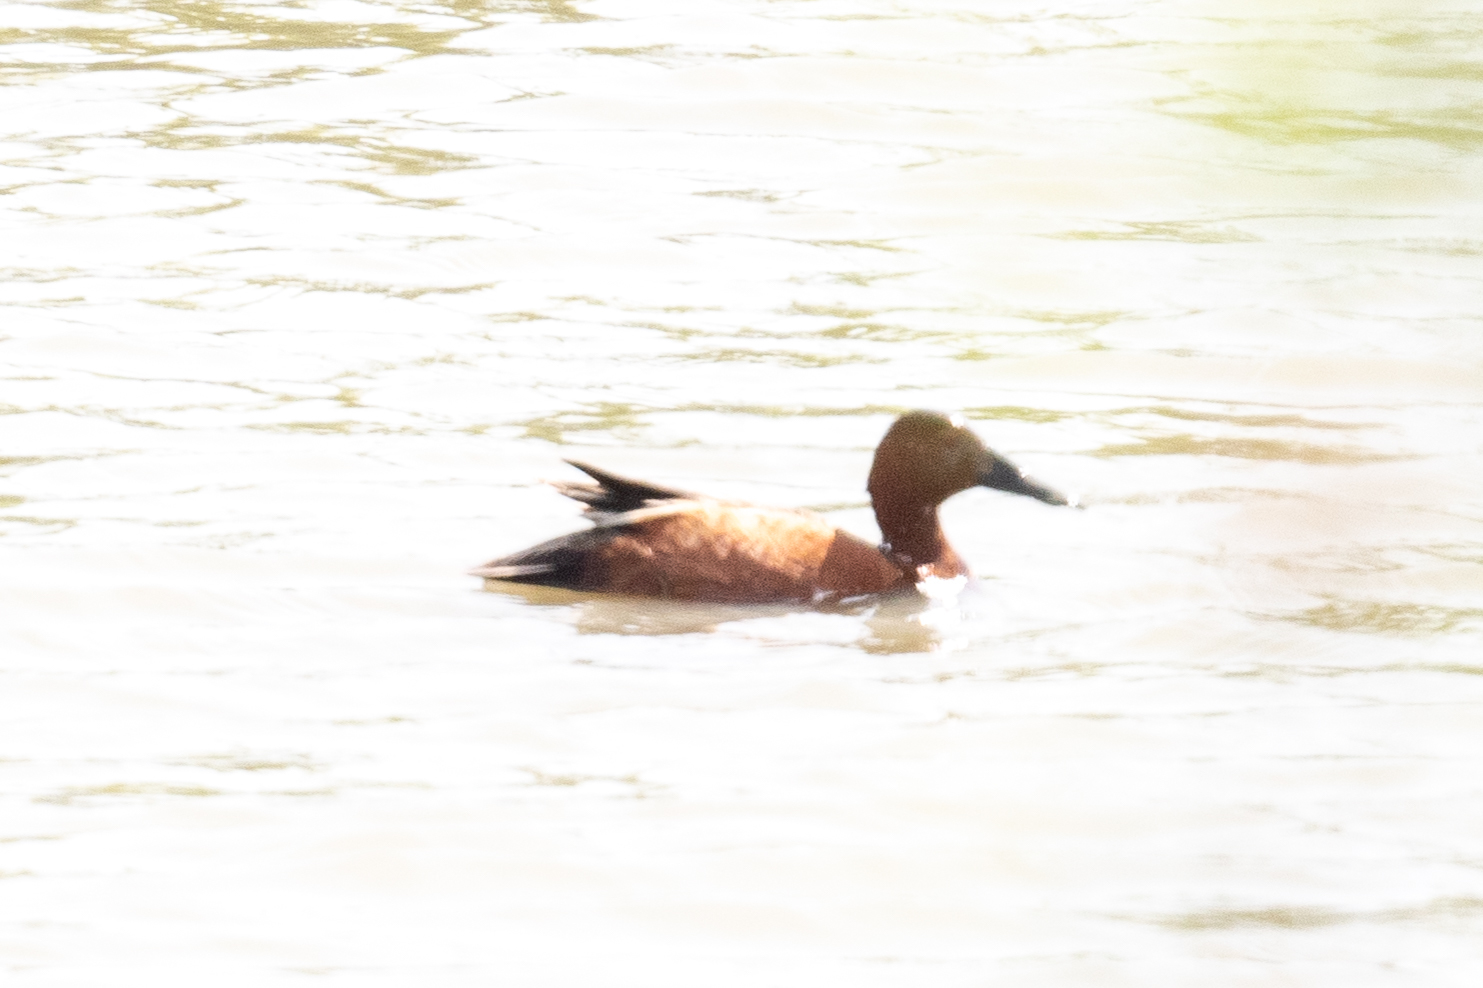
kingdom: Animalia
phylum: Chordata
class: Aves
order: Anseriformes
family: Anatidae
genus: Spatula
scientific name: Spatula cyanoptera
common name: Cinnamon teal
